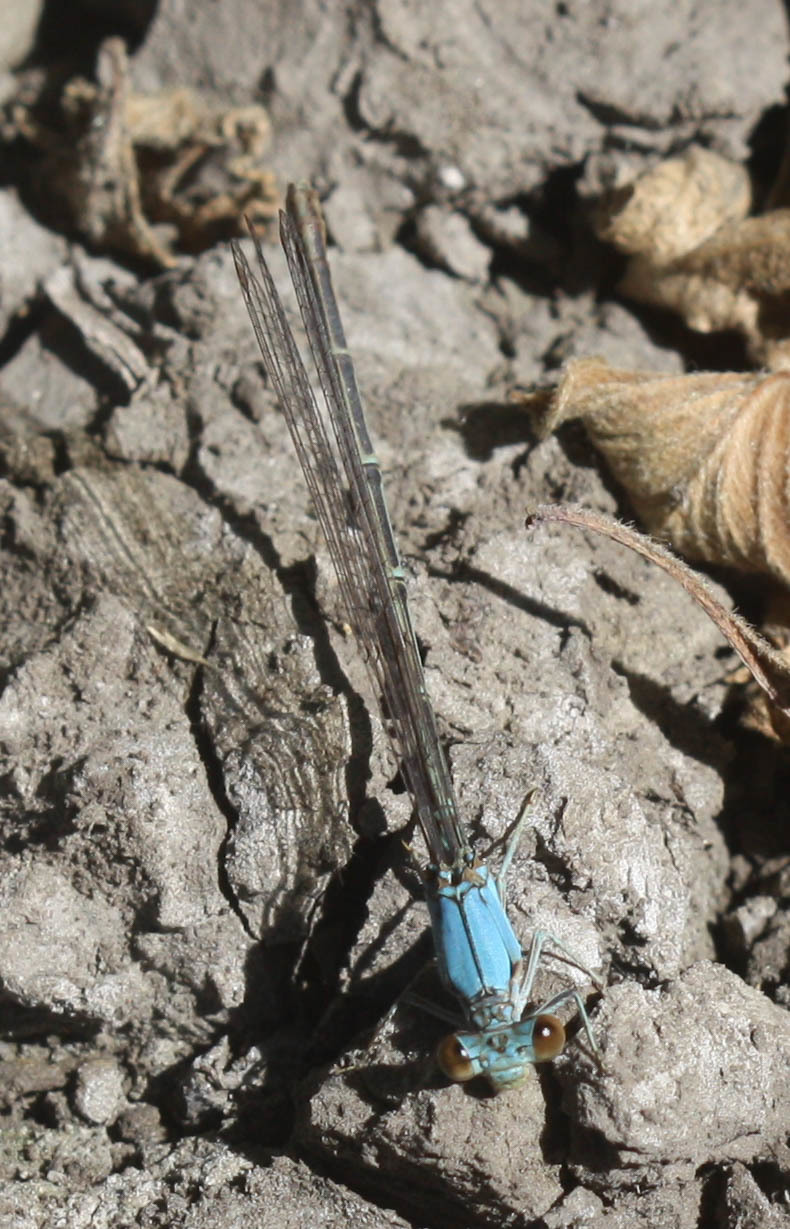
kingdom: Animalia
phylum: Arthropoda
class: Insecta
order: Odonata
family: Coenagrionidae
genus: Argia
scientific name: Argia apicalis
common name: Blue-fronted dancer
